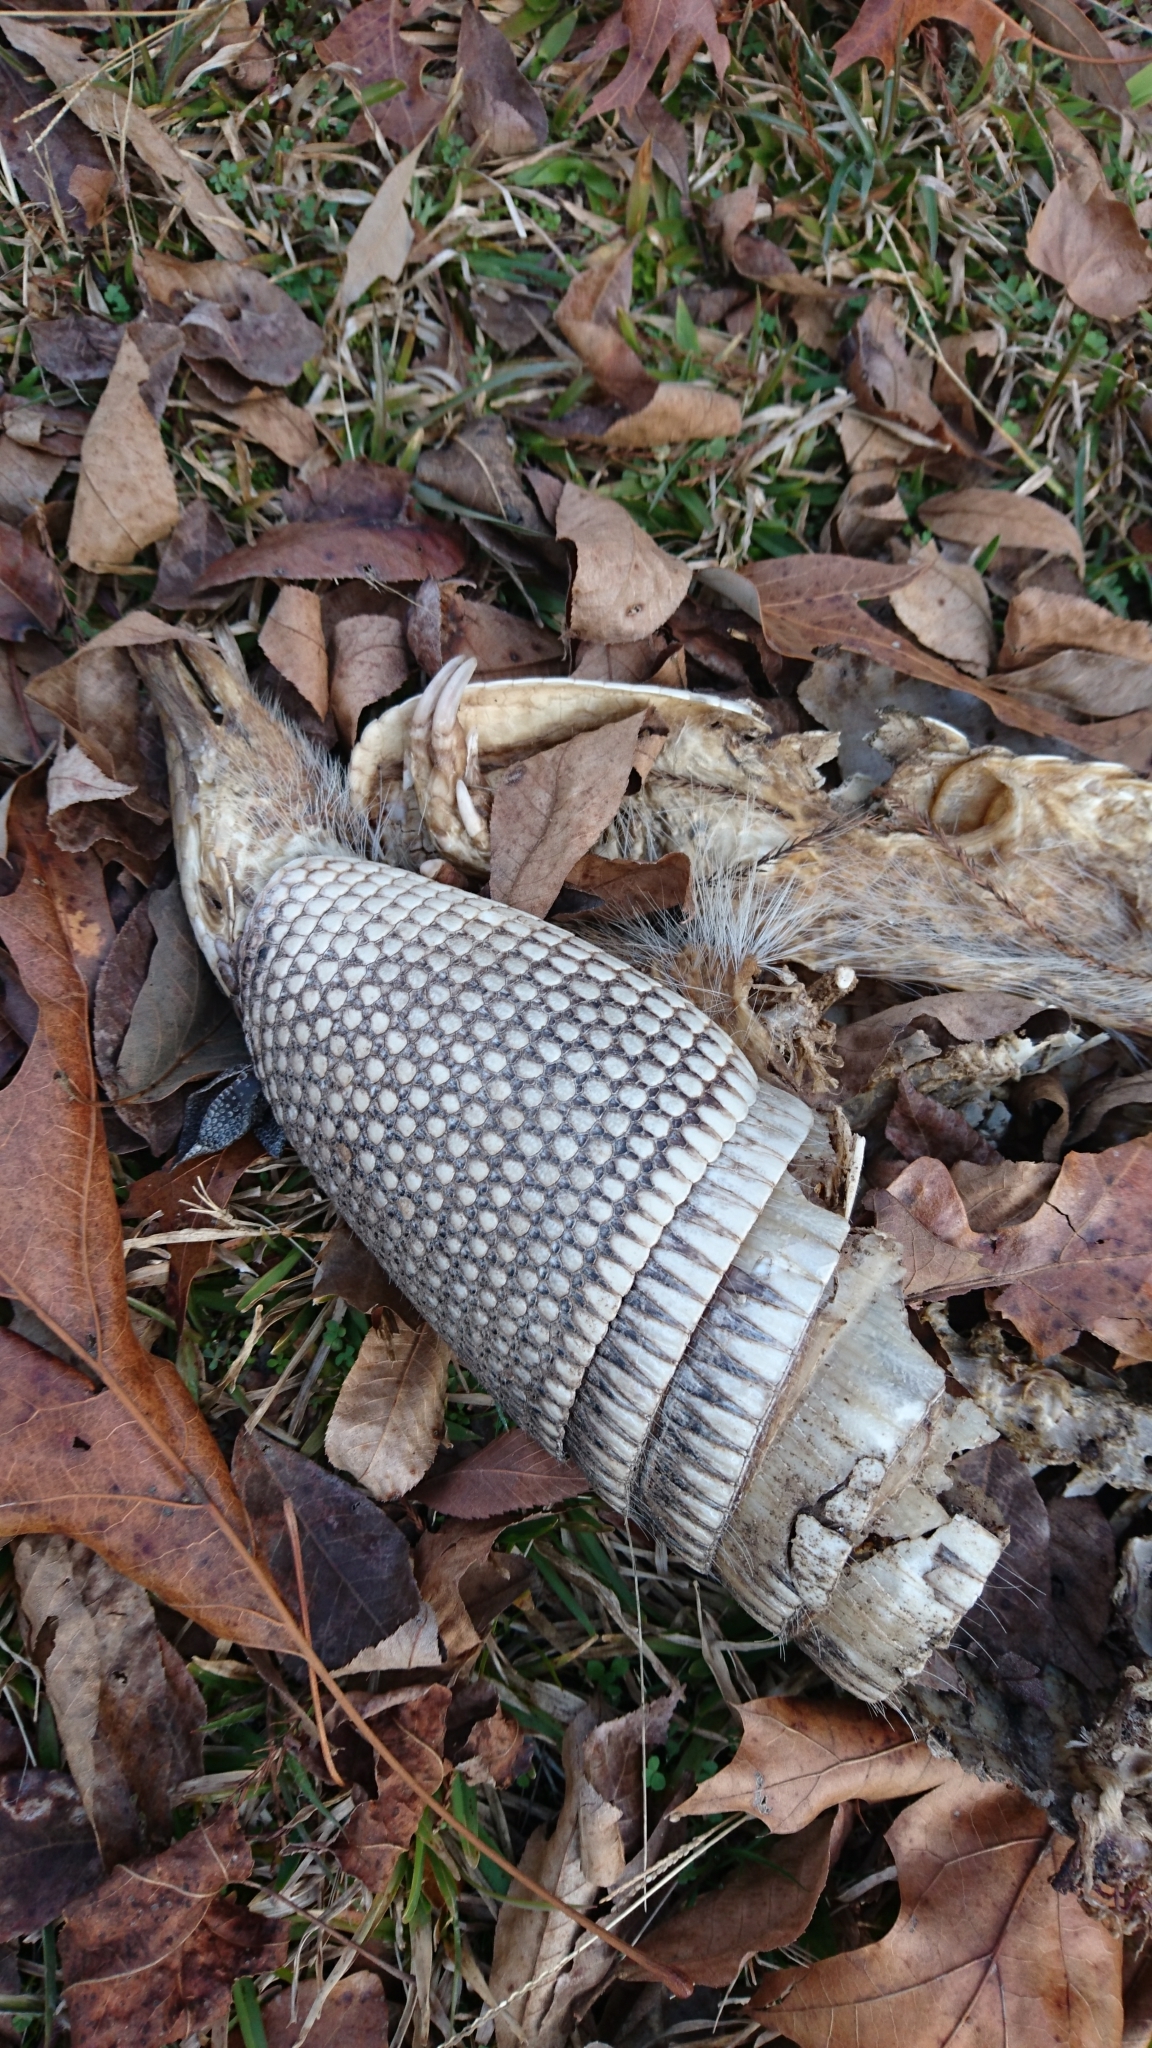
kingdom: Animalia
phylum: Chordata
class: Mammalia
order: Cingulata
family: Dasypodidae
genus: Dasypus
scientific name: Dasypus novemcinctus
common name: Nine-banded armadillo
